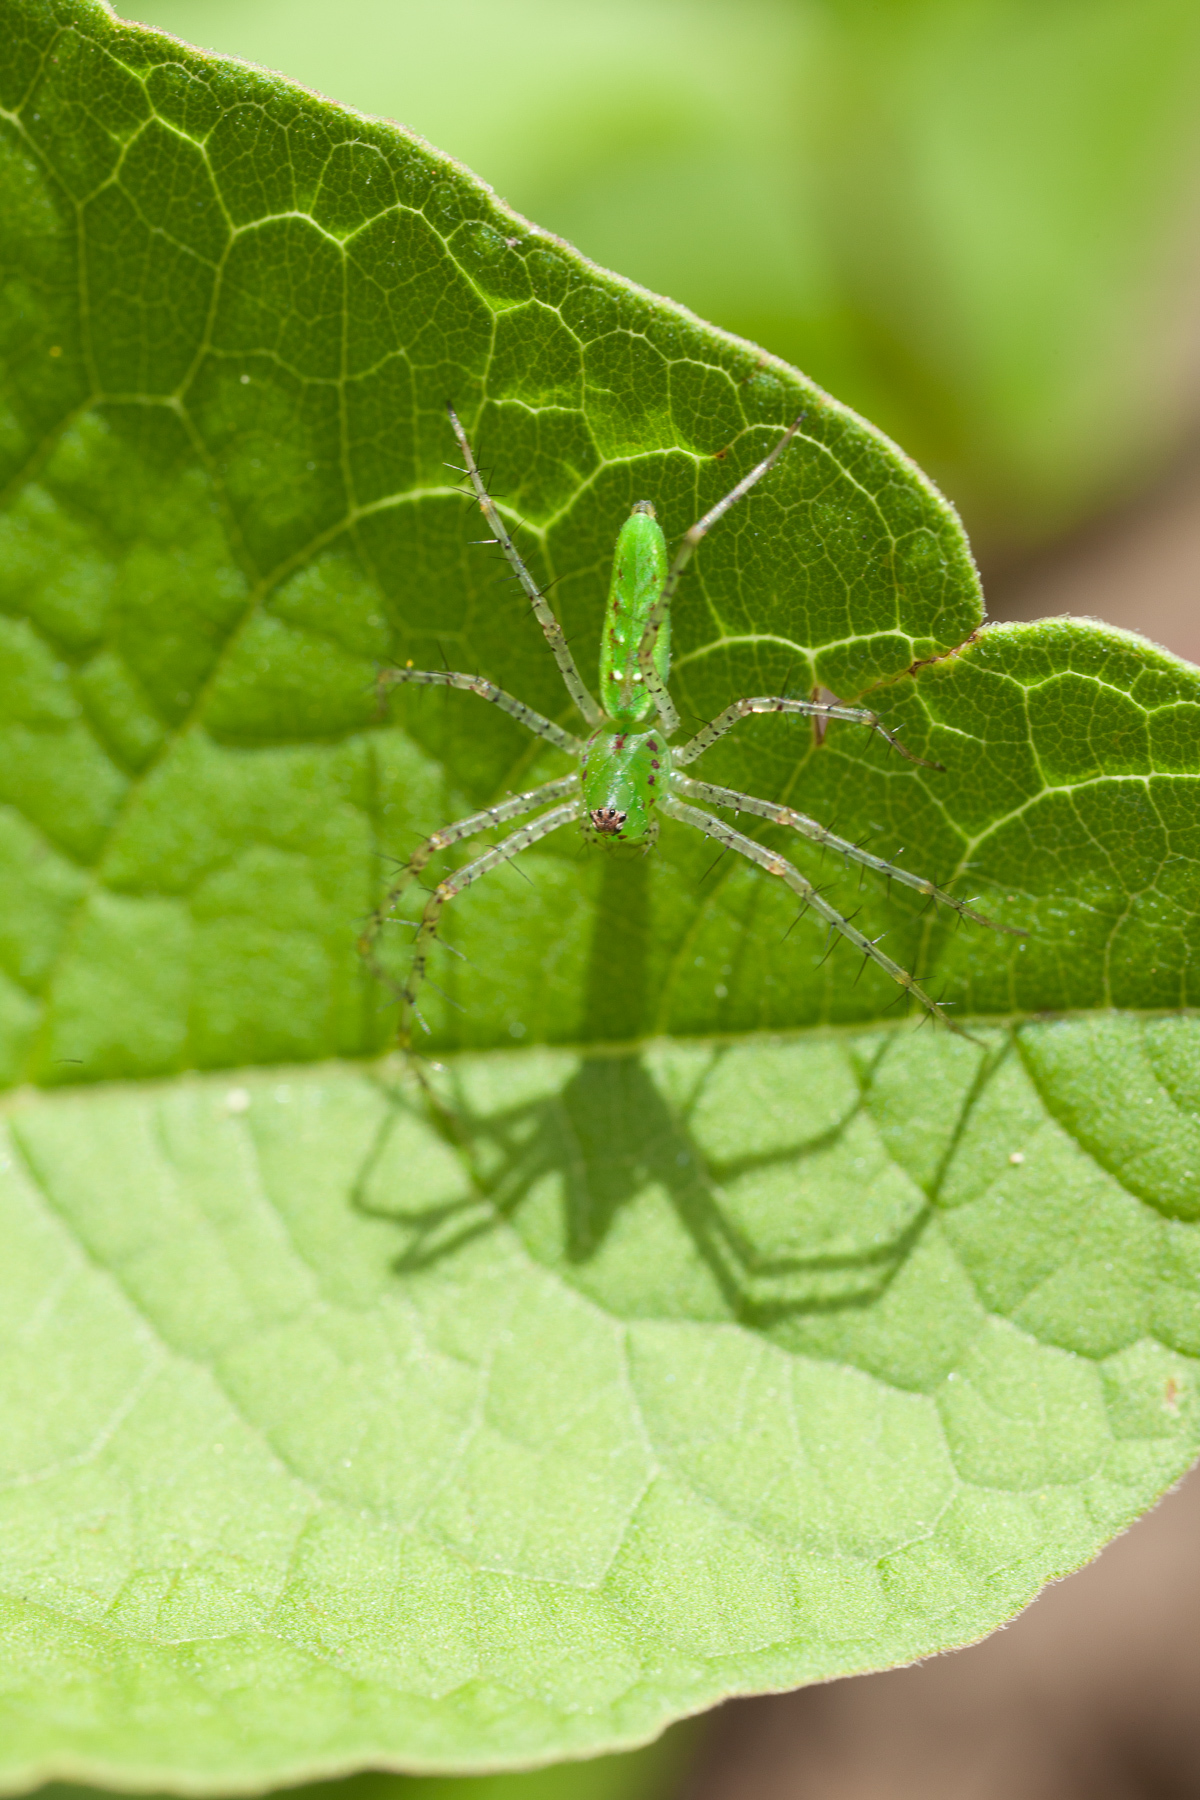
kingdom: Animalia
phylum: Arthropoda
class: Arachnida
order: Araneae
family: Oxyopidae
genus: Peucetia
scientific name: Peucetia viridans
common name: Lynx spiders
